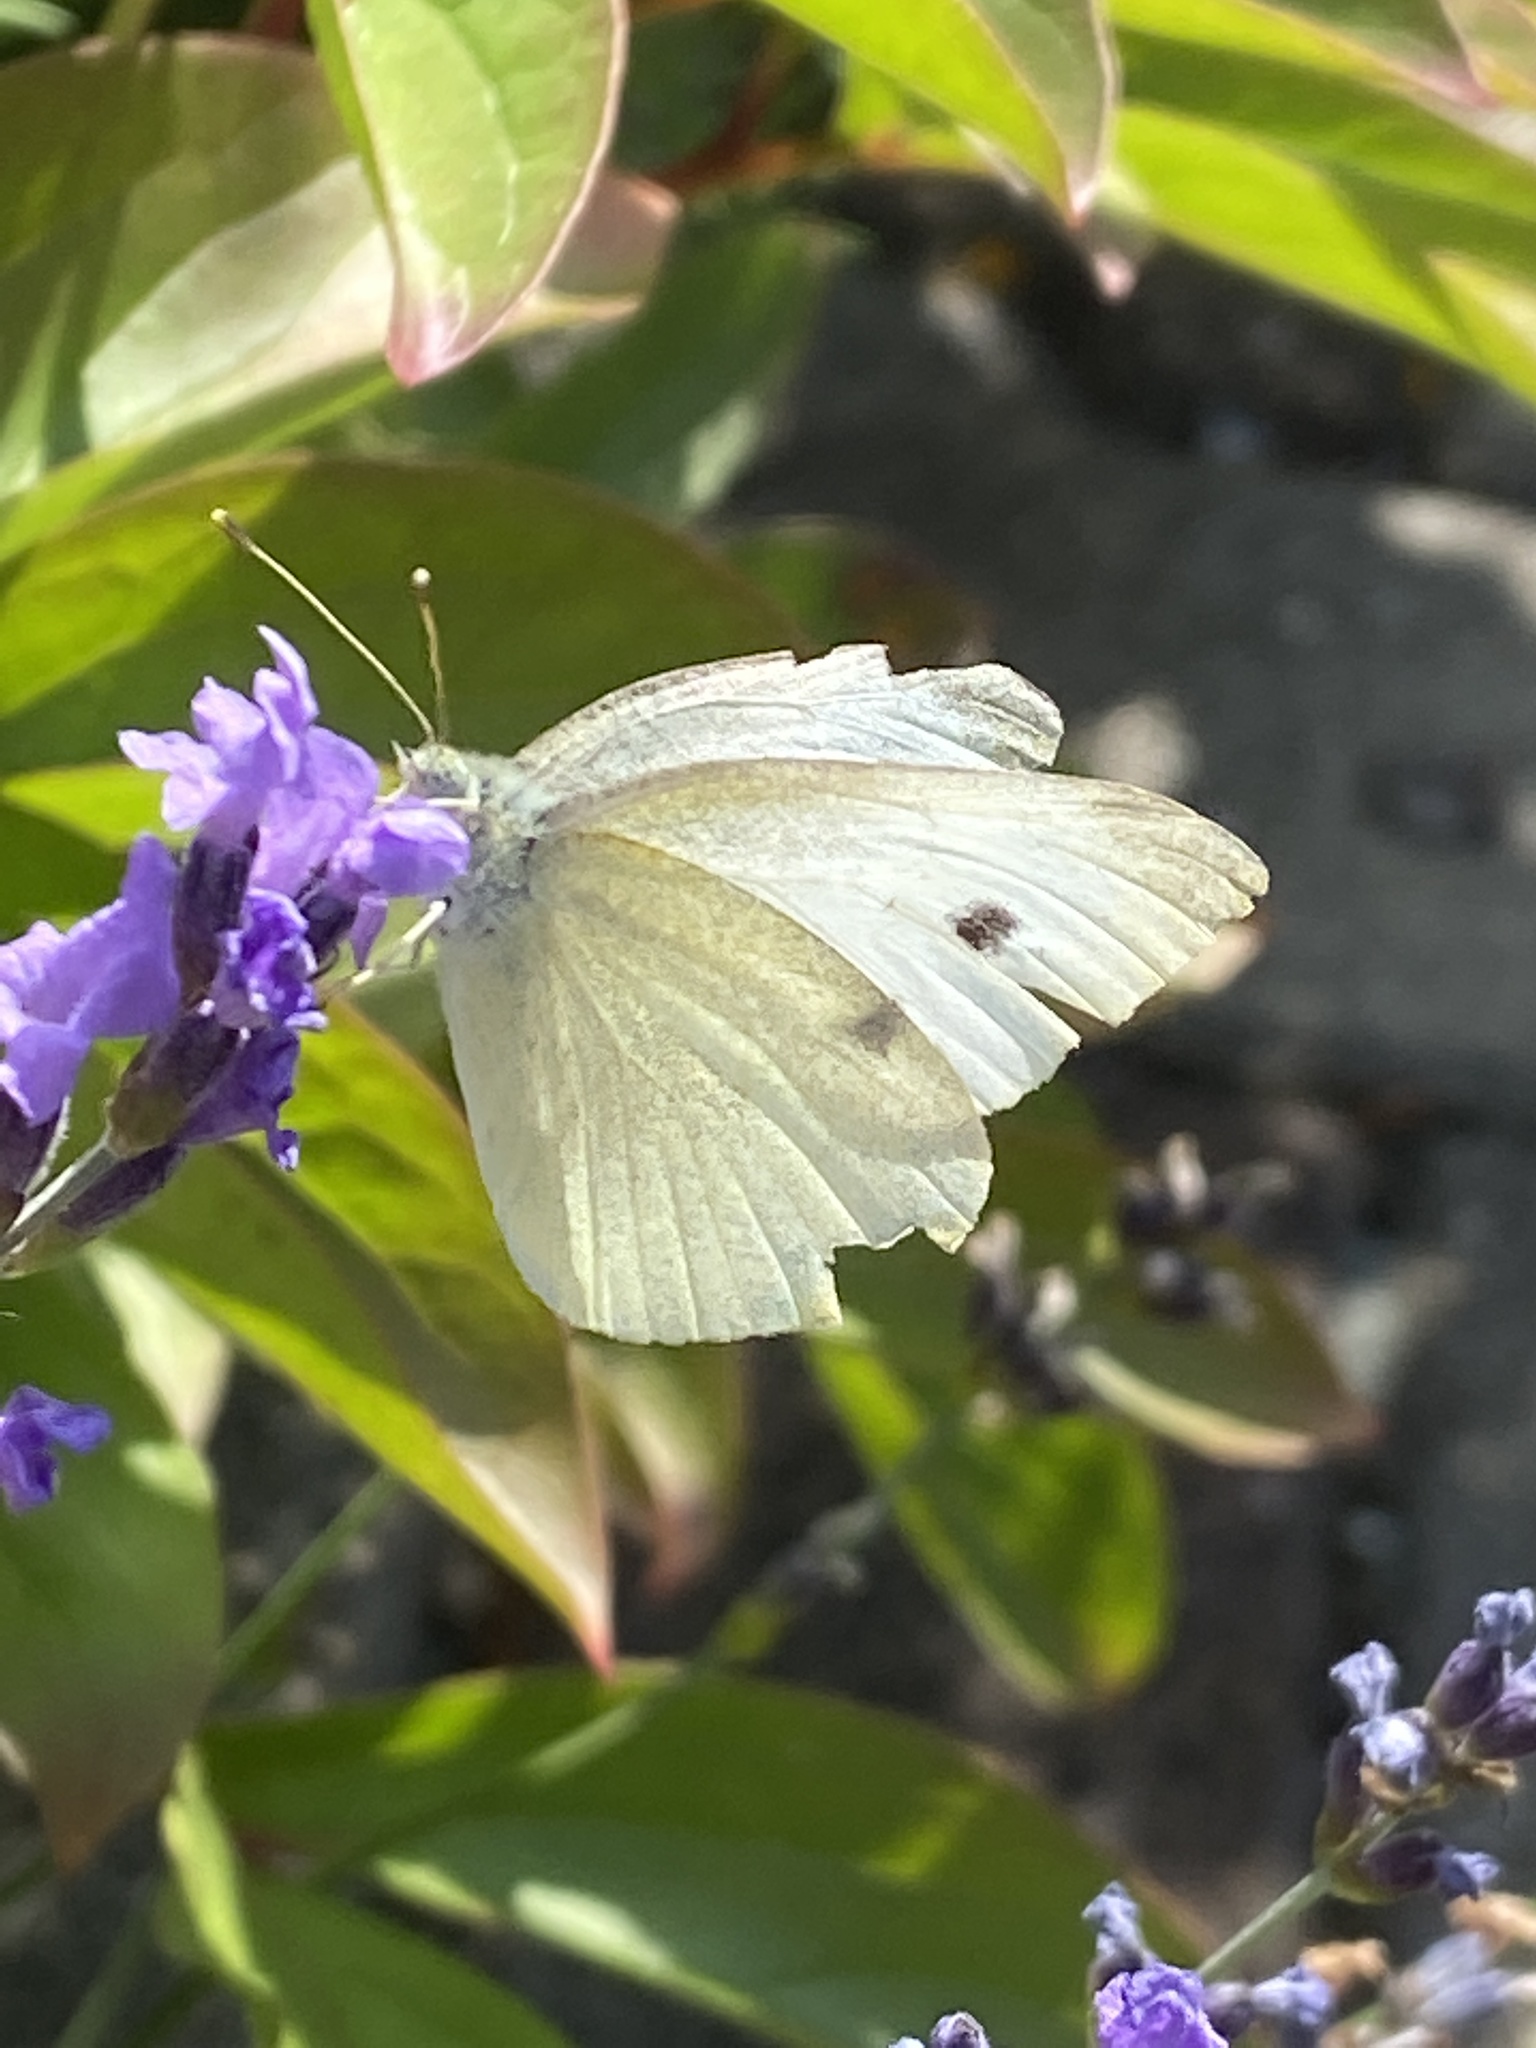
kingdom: Animalia
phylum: Arthropoda
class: Insecta
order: Lepidoptera
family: Pieridae
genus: Pieris
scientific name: Pieris rapae
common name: Small white
